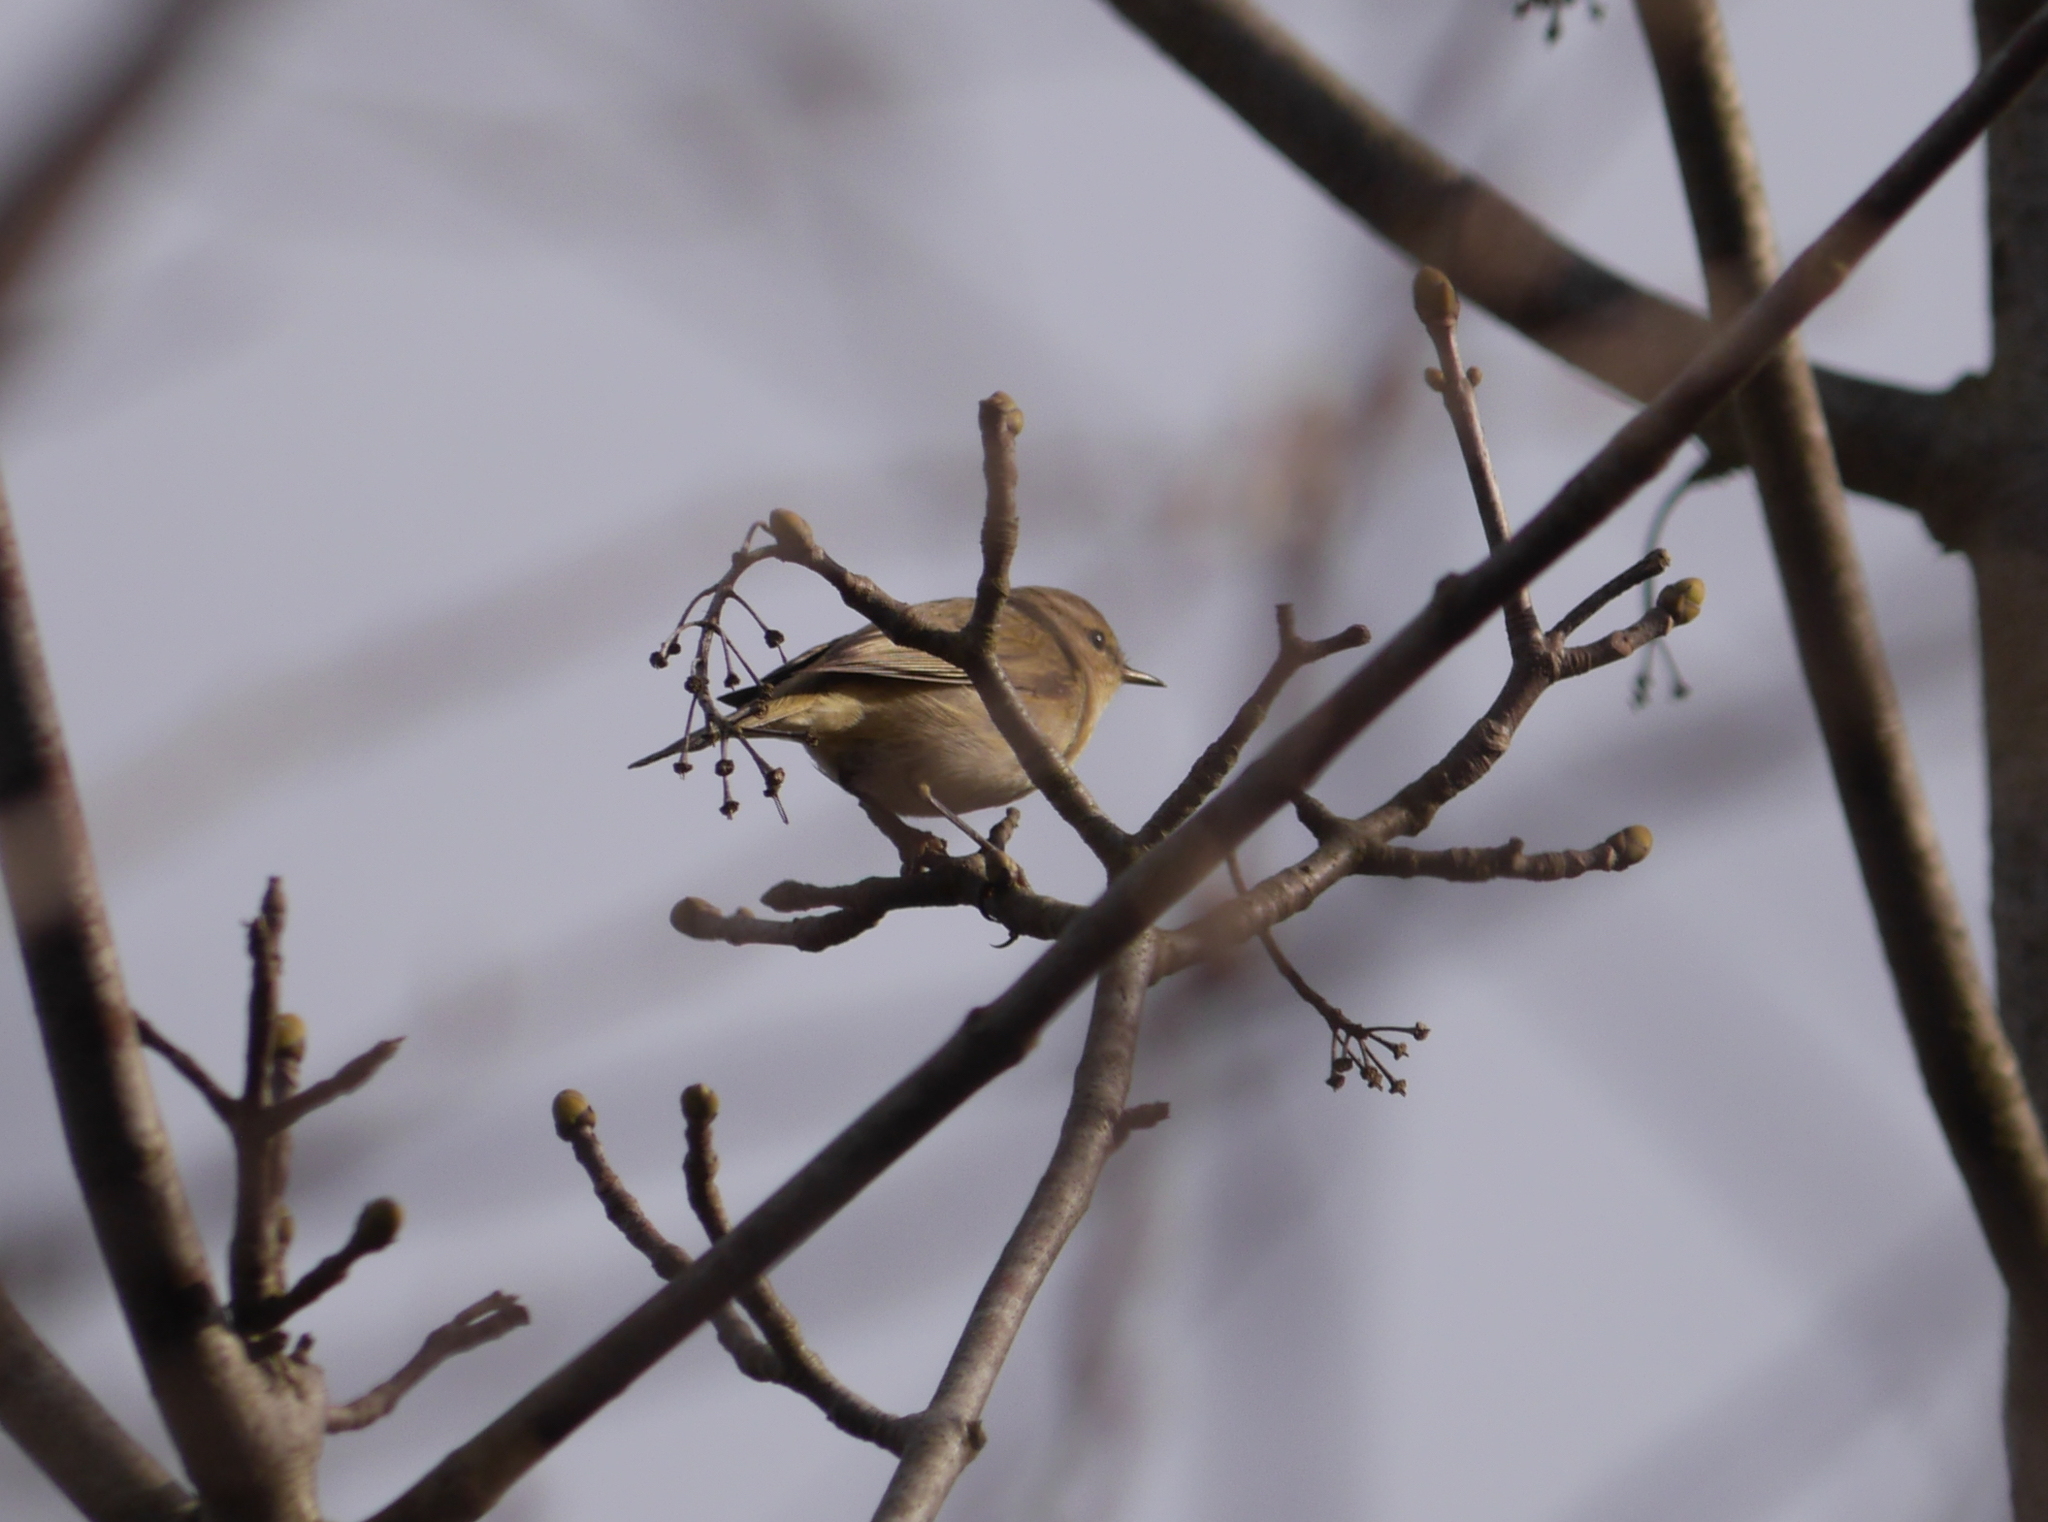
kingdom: Animalia
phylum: Chordata
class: Aves
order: Passeriformes
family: Phylloscopidae
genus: Phylloscopus
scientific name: Phylloscopus collybita
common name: Common chiffchaff
